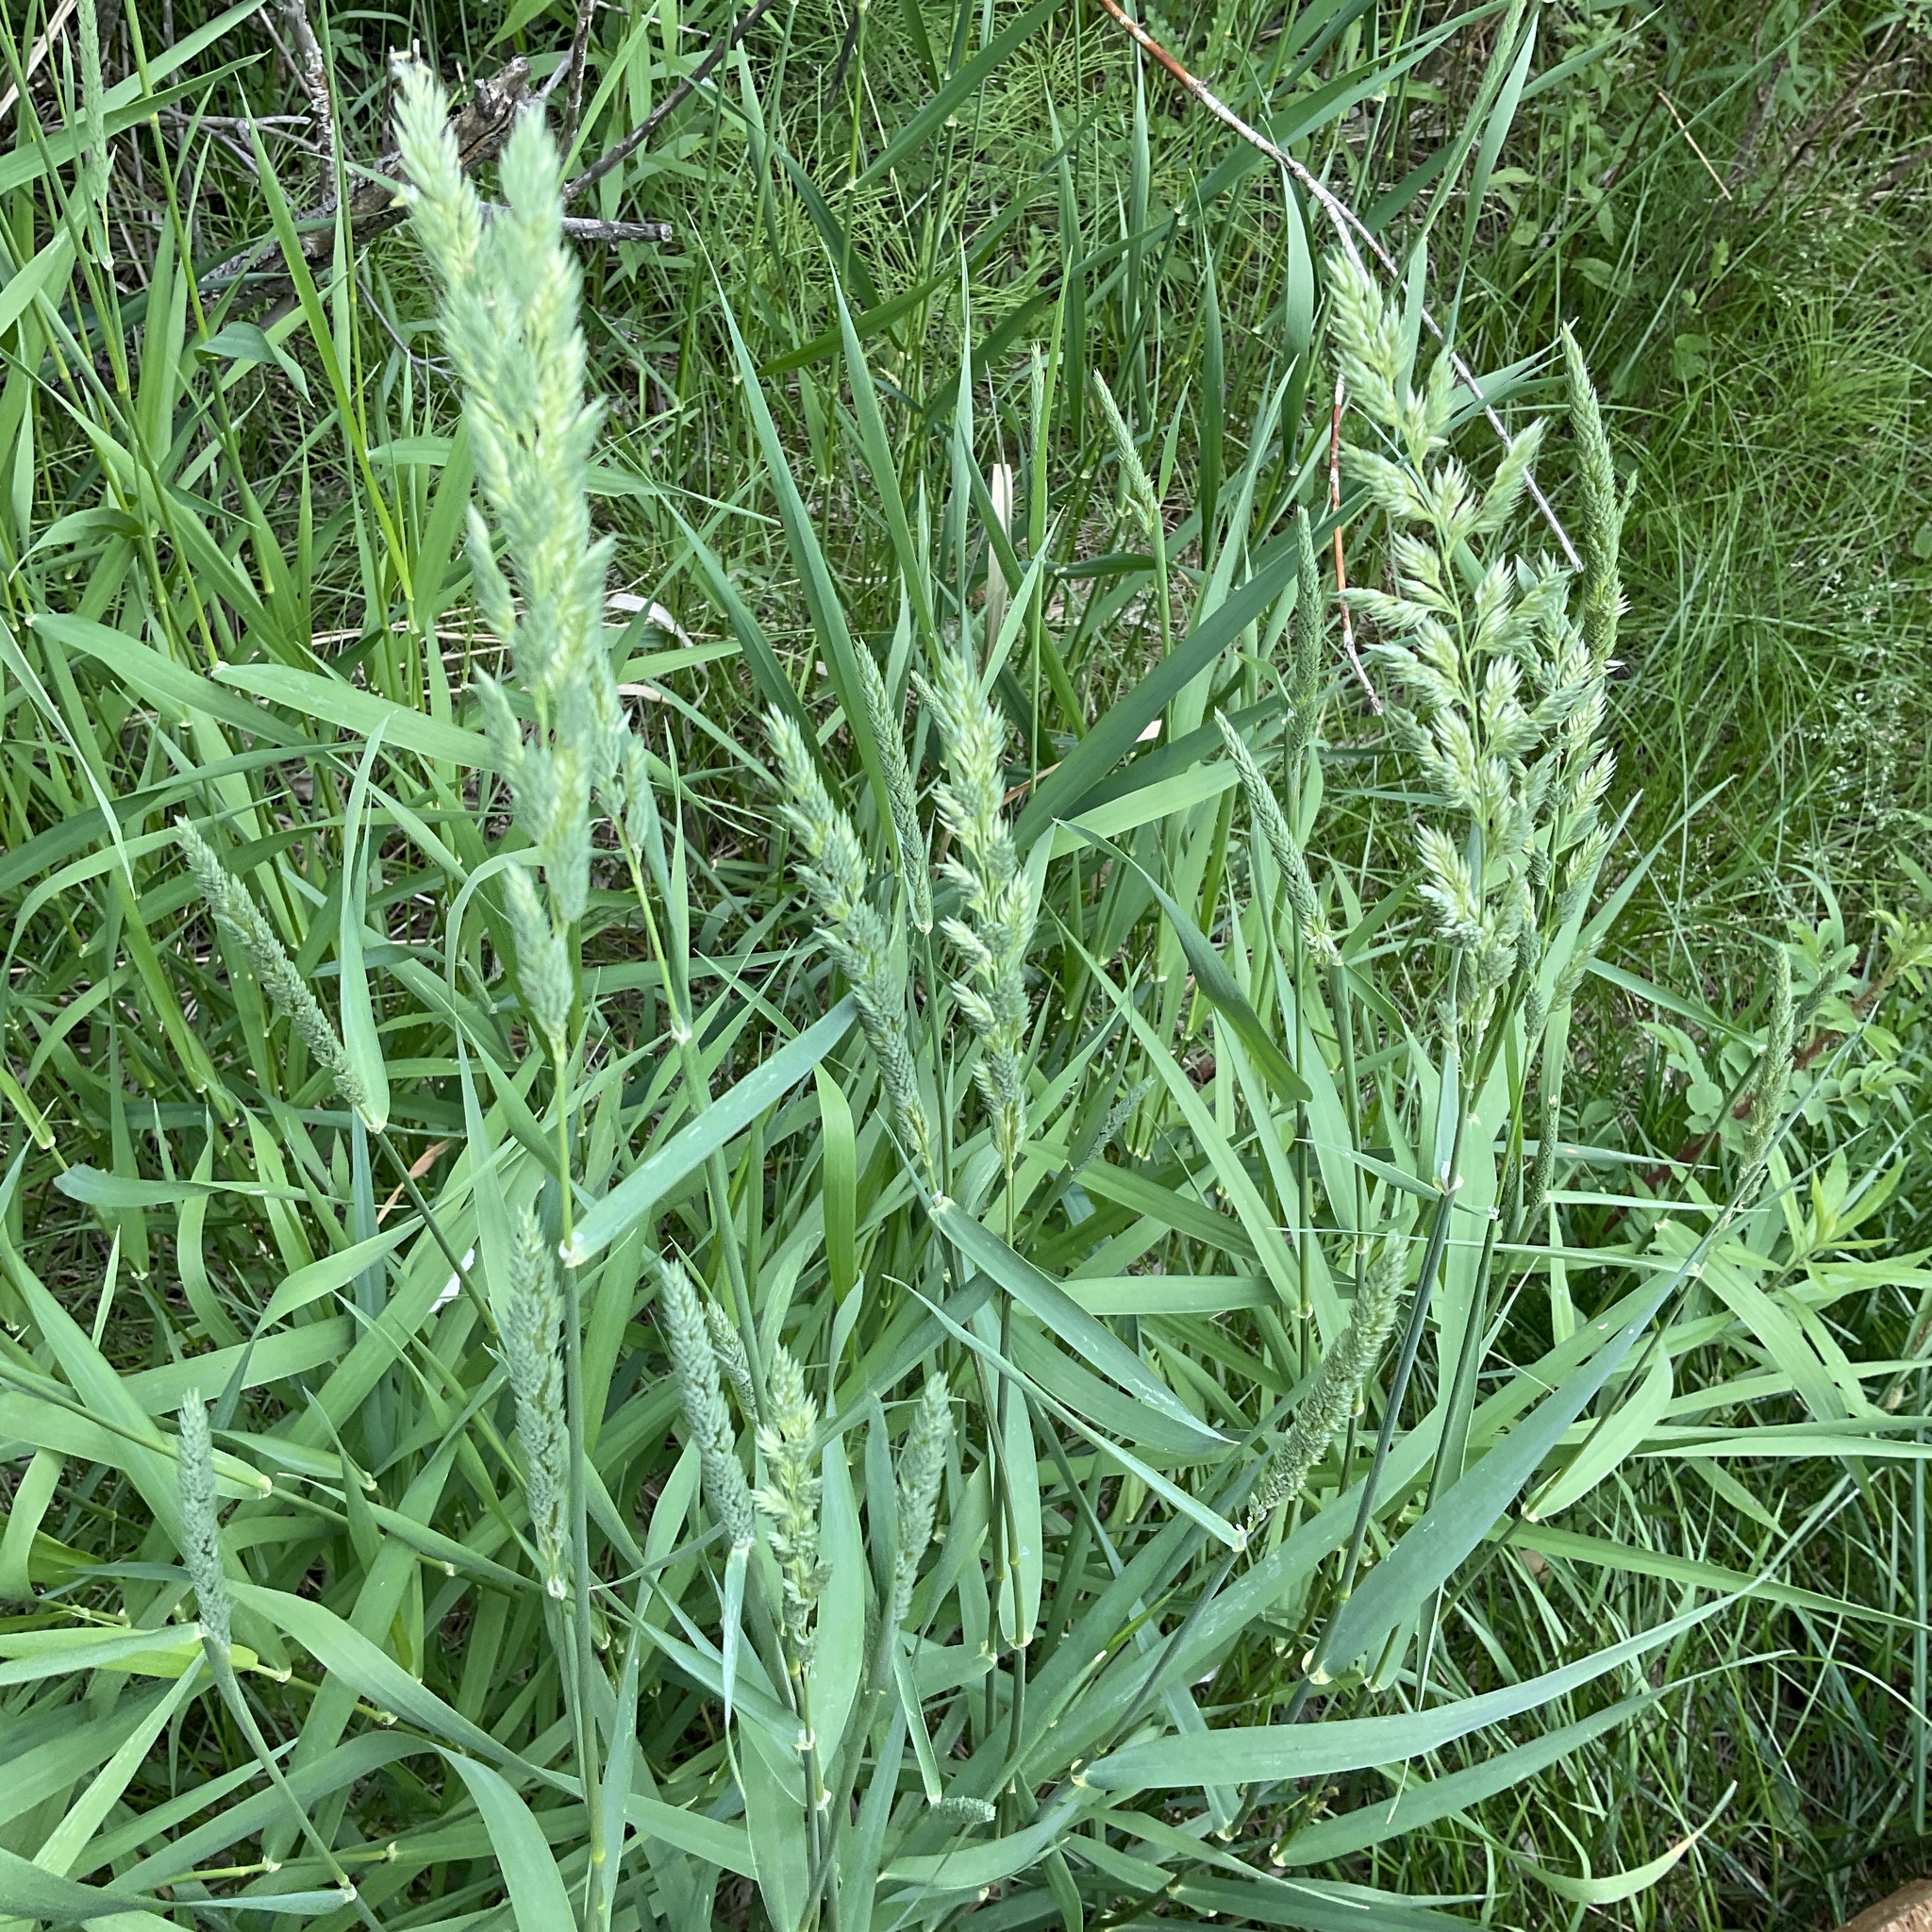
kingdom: Plantae
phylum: Tracheophyta
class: Liliopsida
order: Poales
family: Poaceae
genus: Phalaris
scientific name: Phalaris arundinacea
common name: Reed canary-grass
